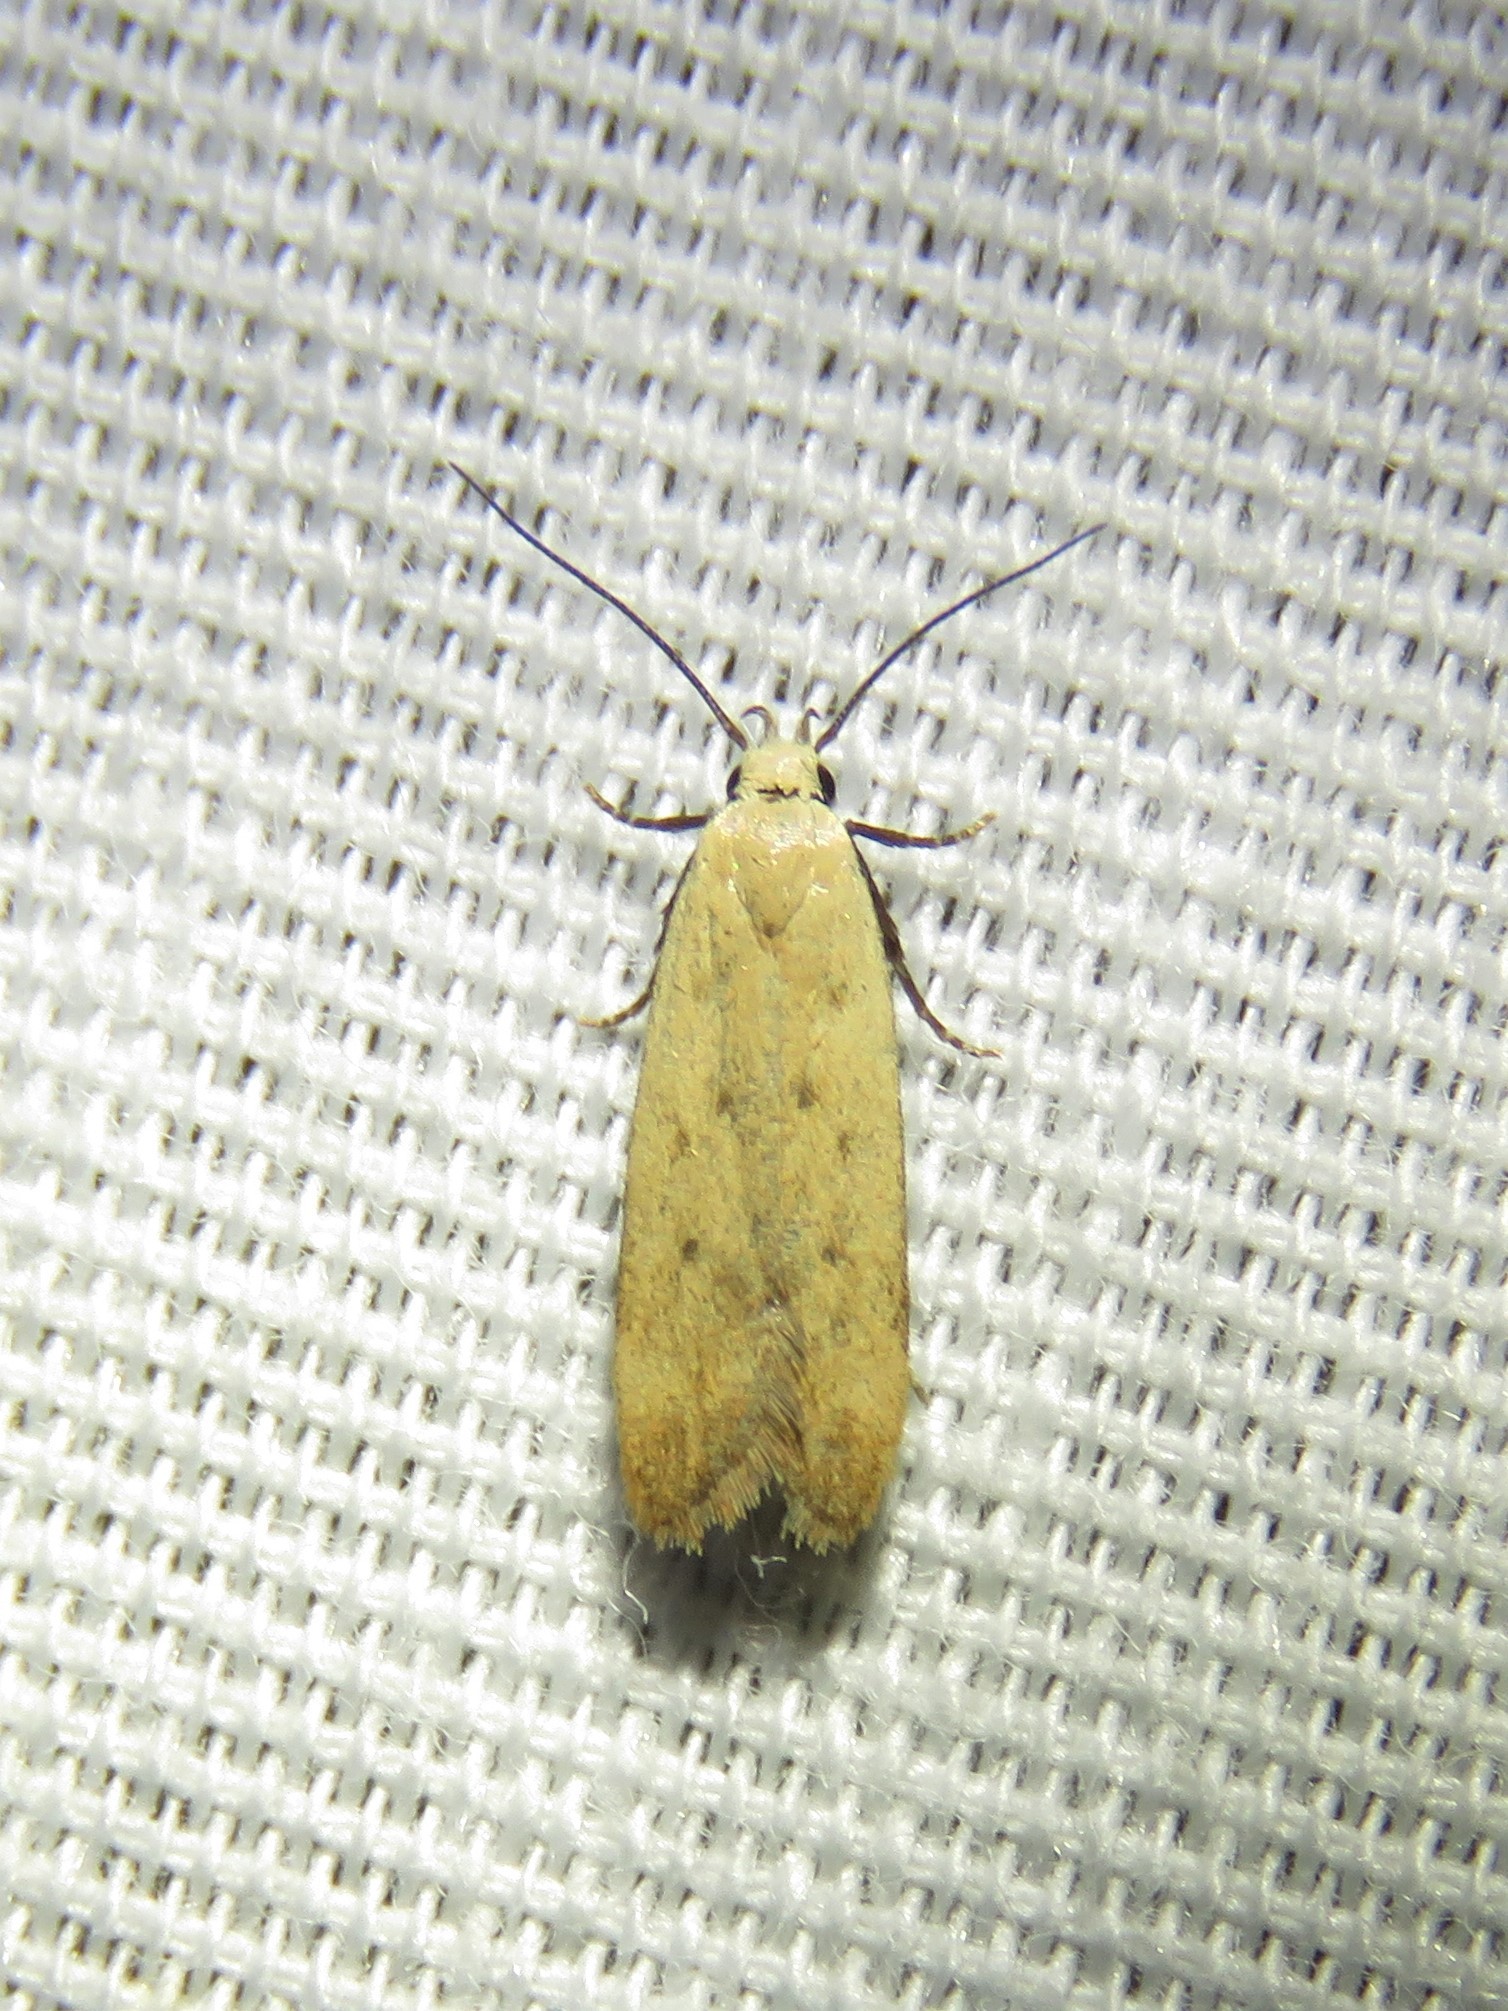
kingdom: Animalia
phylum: Arthropoda
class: Insecta
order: Lepidoptera
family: Gelechiidae
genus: Anacampsis
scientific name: Anacampsis fullonella
